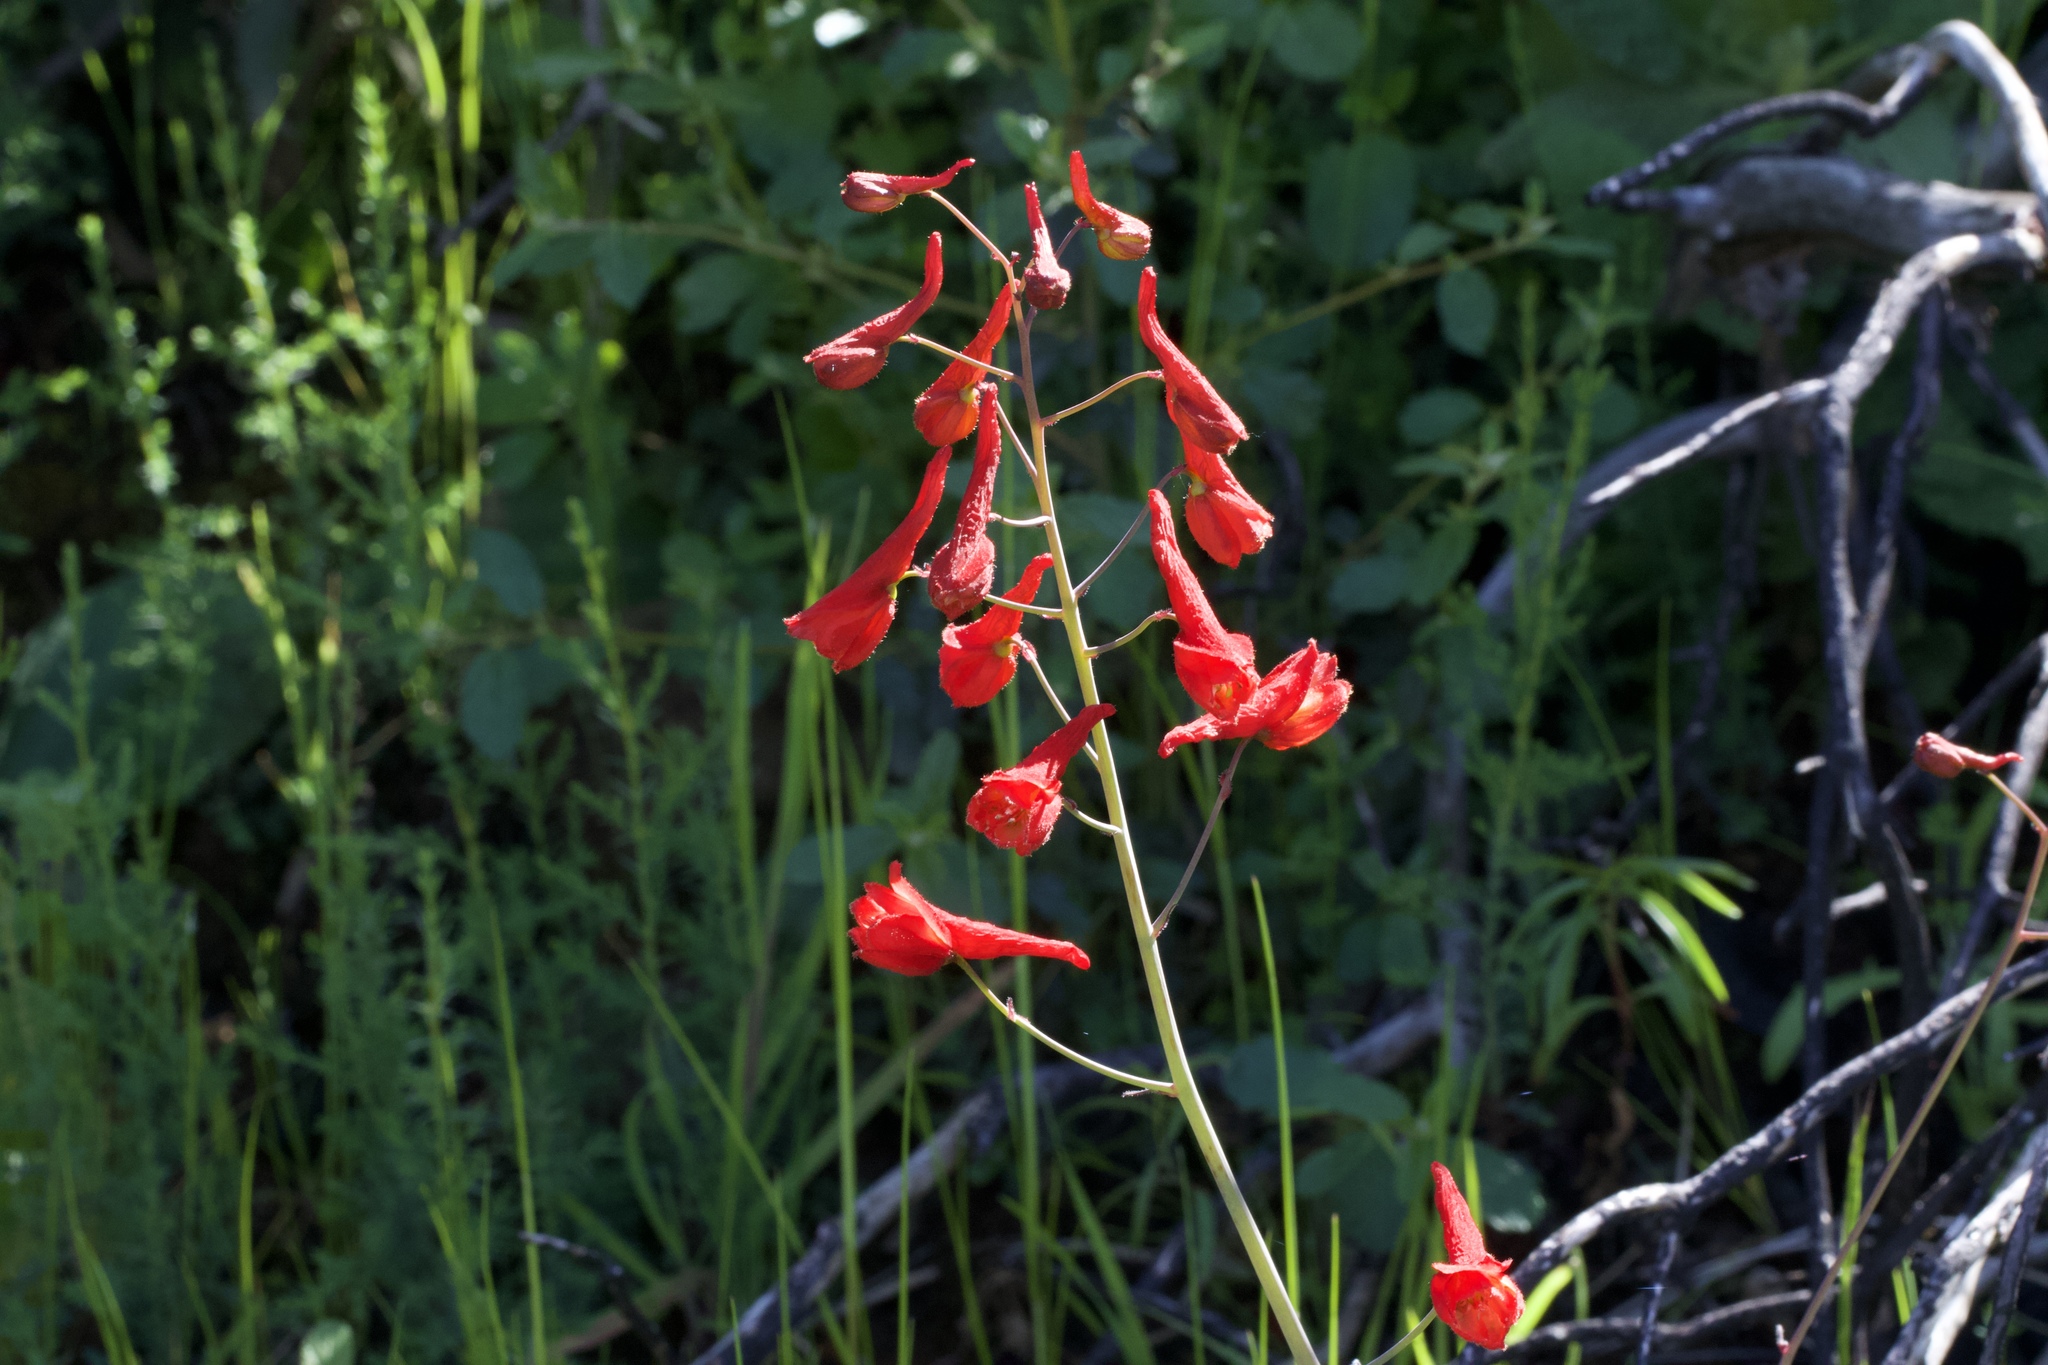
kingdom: Plantae
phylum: Tracheophyta
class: Magnoliopsida
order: Ranunculales
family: Ranunculaceae
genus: Delphinium
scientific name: Delphinium nudicaule
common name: Red larkspur
